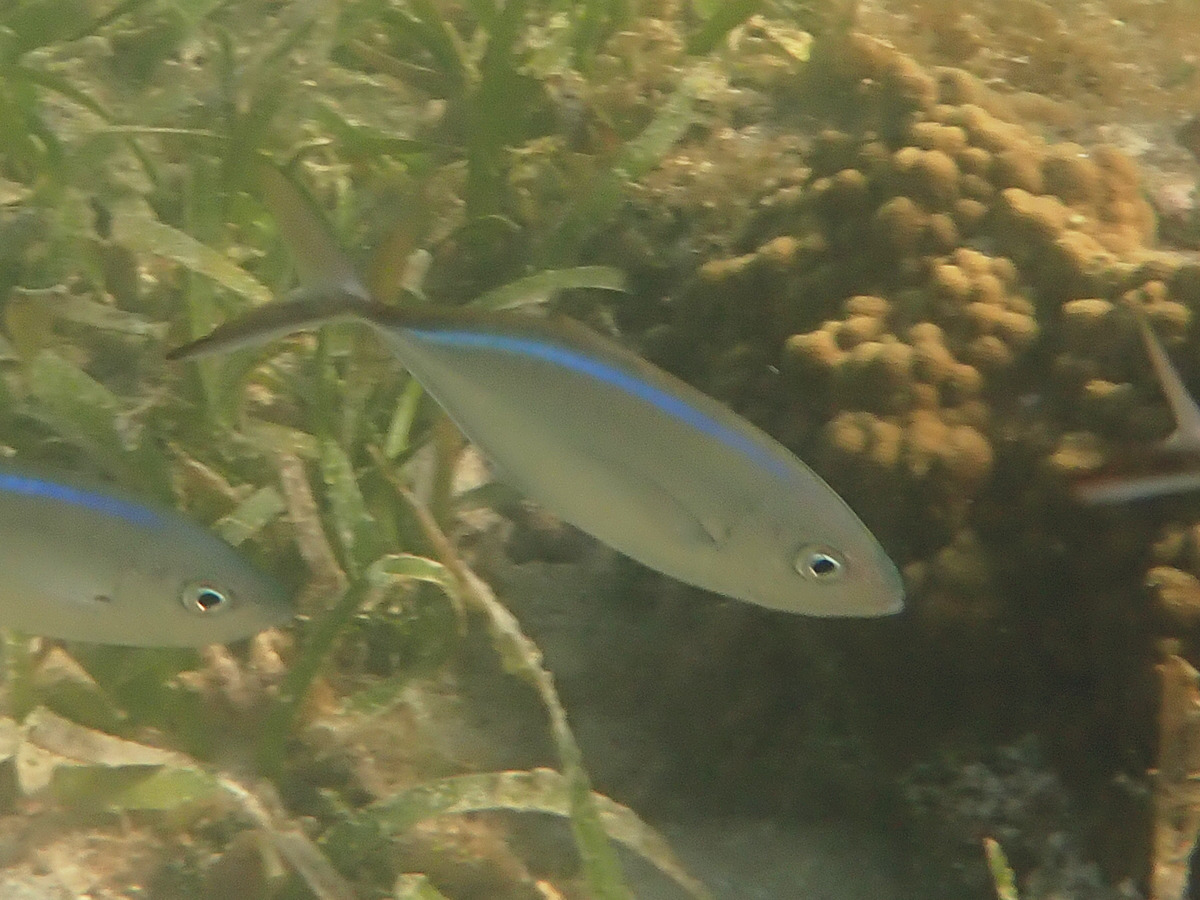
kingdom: Animalia
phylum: Chordata
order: Perciformes
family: Carangidae
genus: Caranx
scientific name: Caranx ruber
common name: Bar jack
